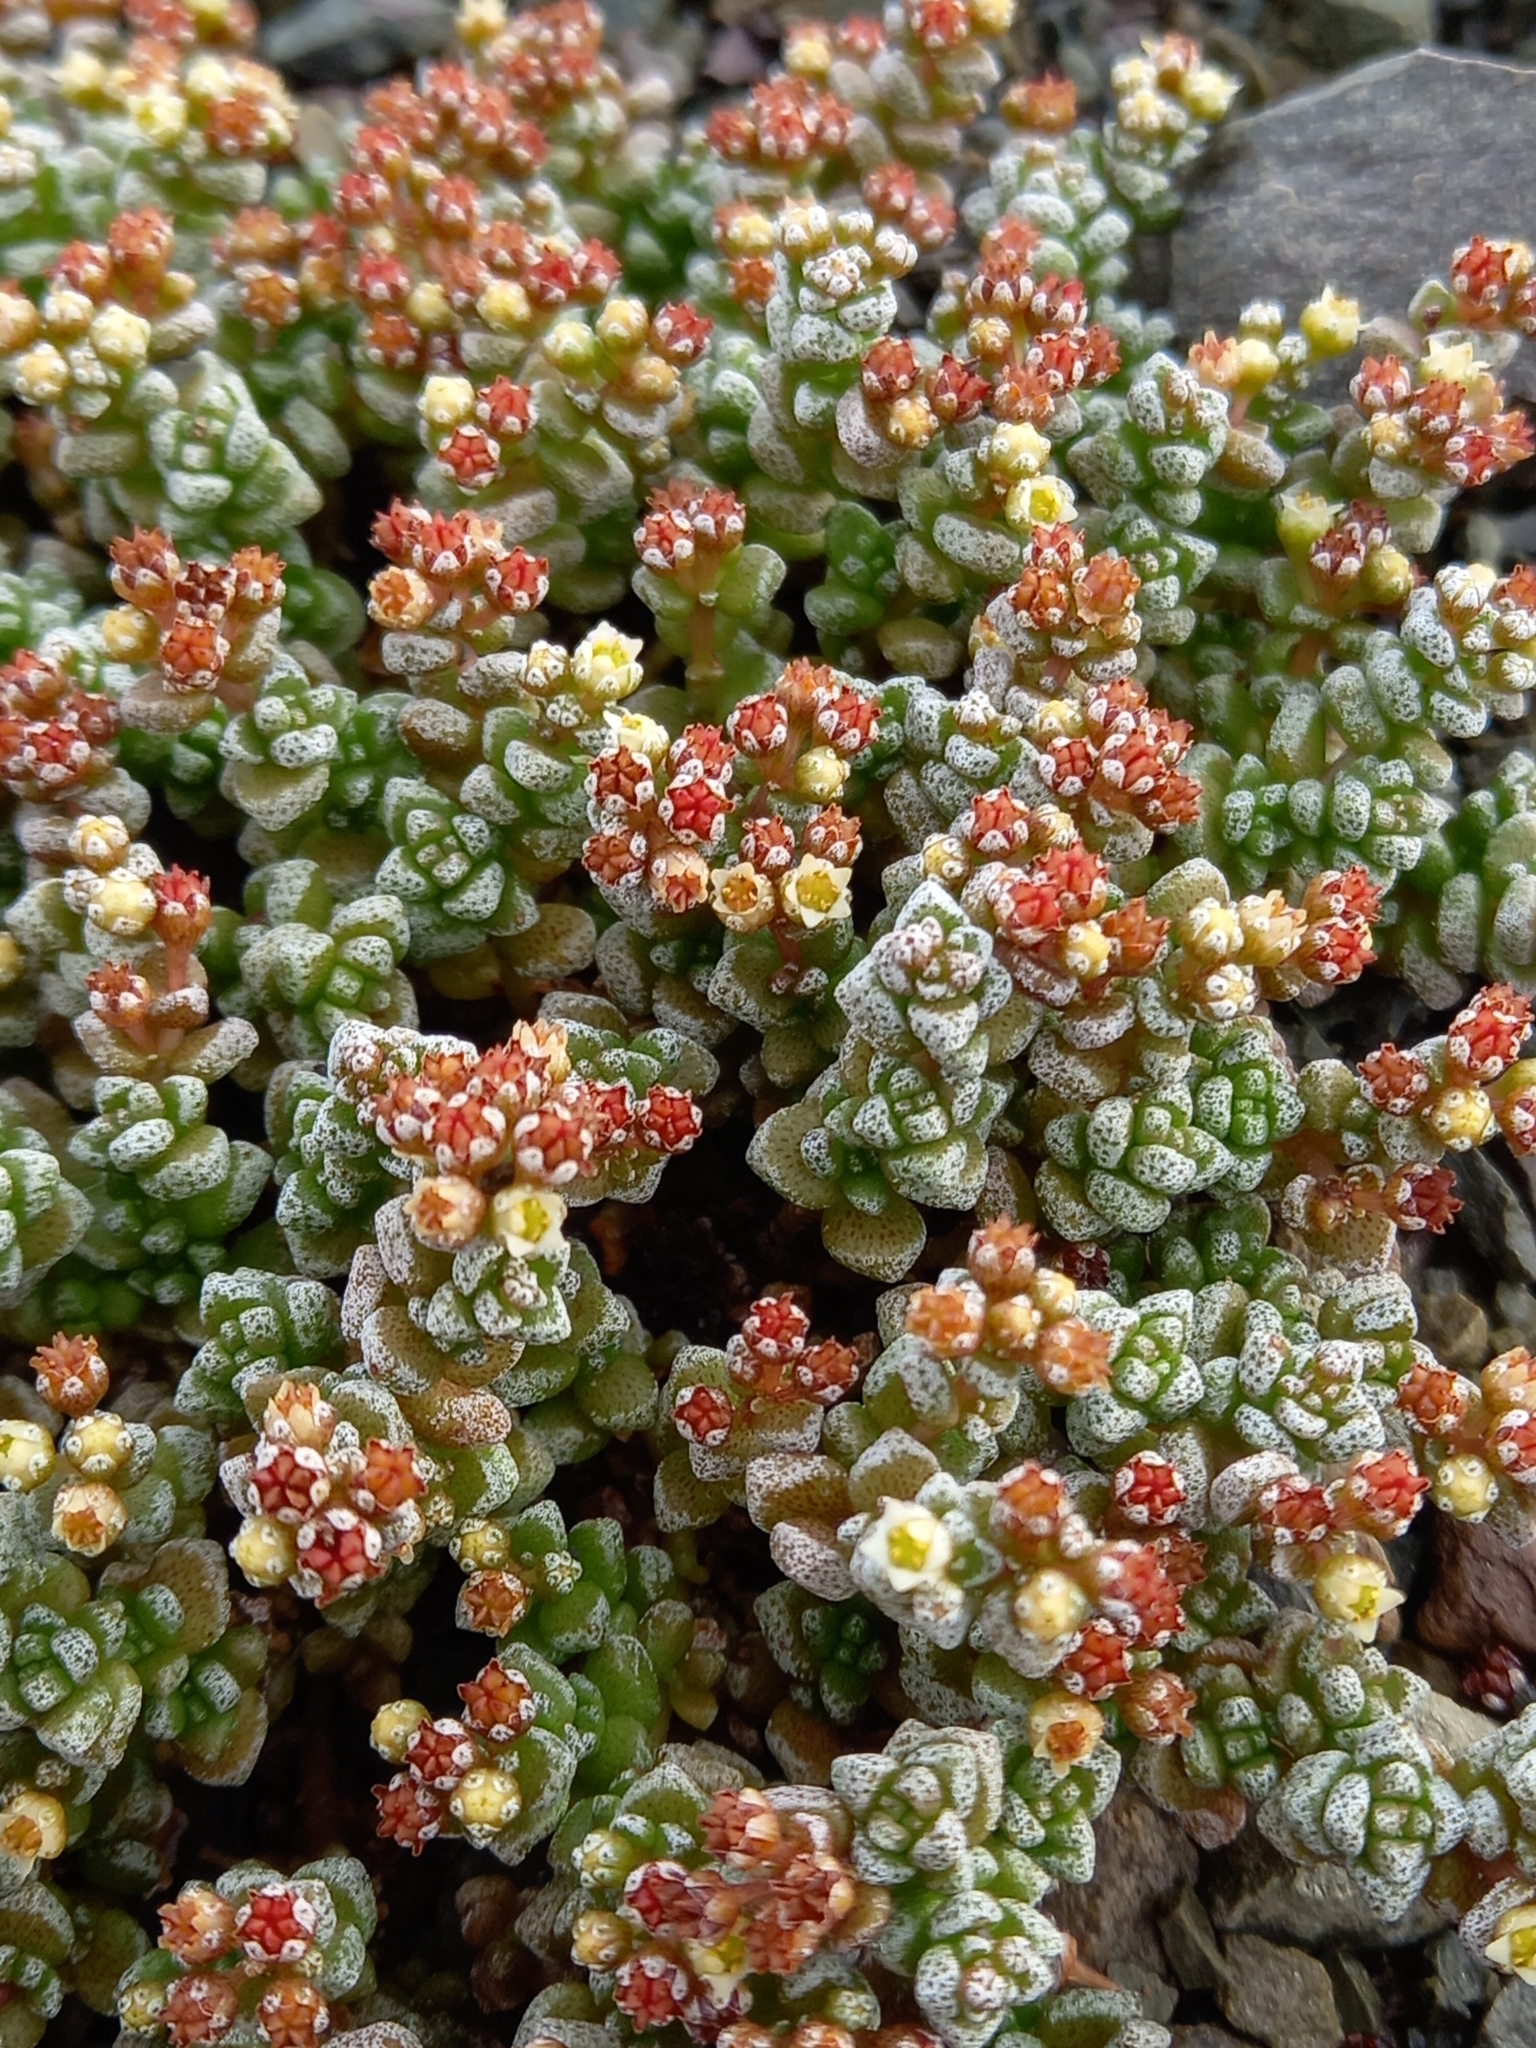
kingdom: Plantae
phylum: Tracheophyta
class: Magnoliopsida
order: Saxifragales
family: Crassulaceae
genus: Crassula
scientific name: Crassula corallina
